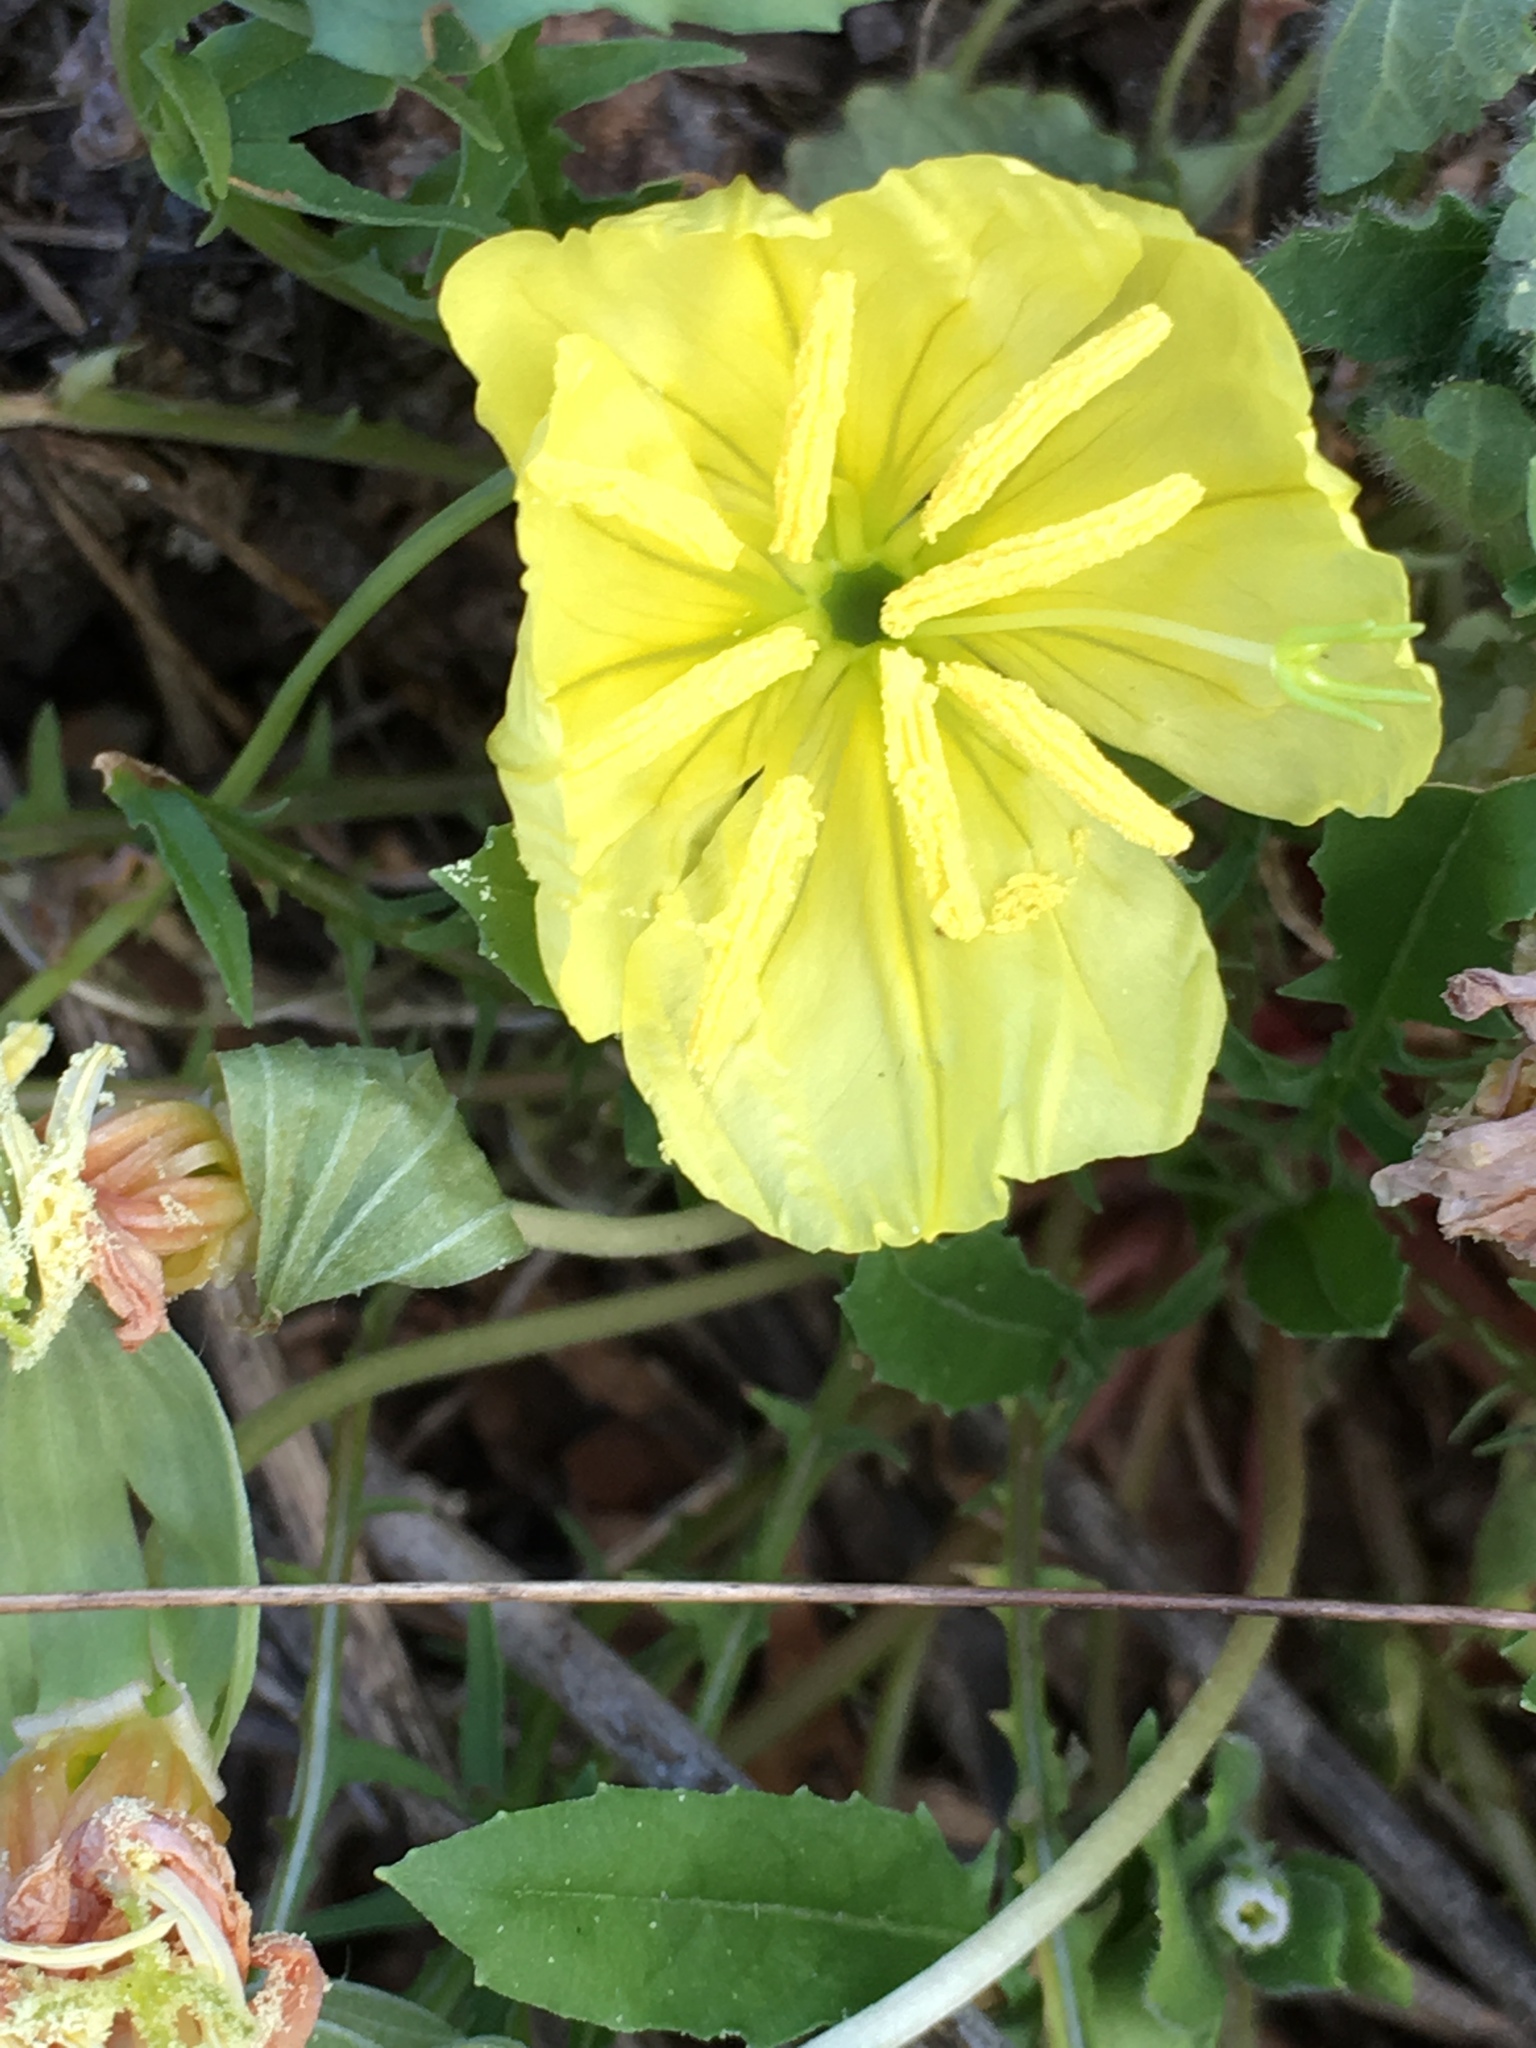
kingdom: Plantae
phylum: Tracheophyta
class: Magnoliopsida
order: Myrtales
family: Onagraceae
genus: Oenothera
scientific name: Oenothera triloba
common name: Sessile evening-primrose
